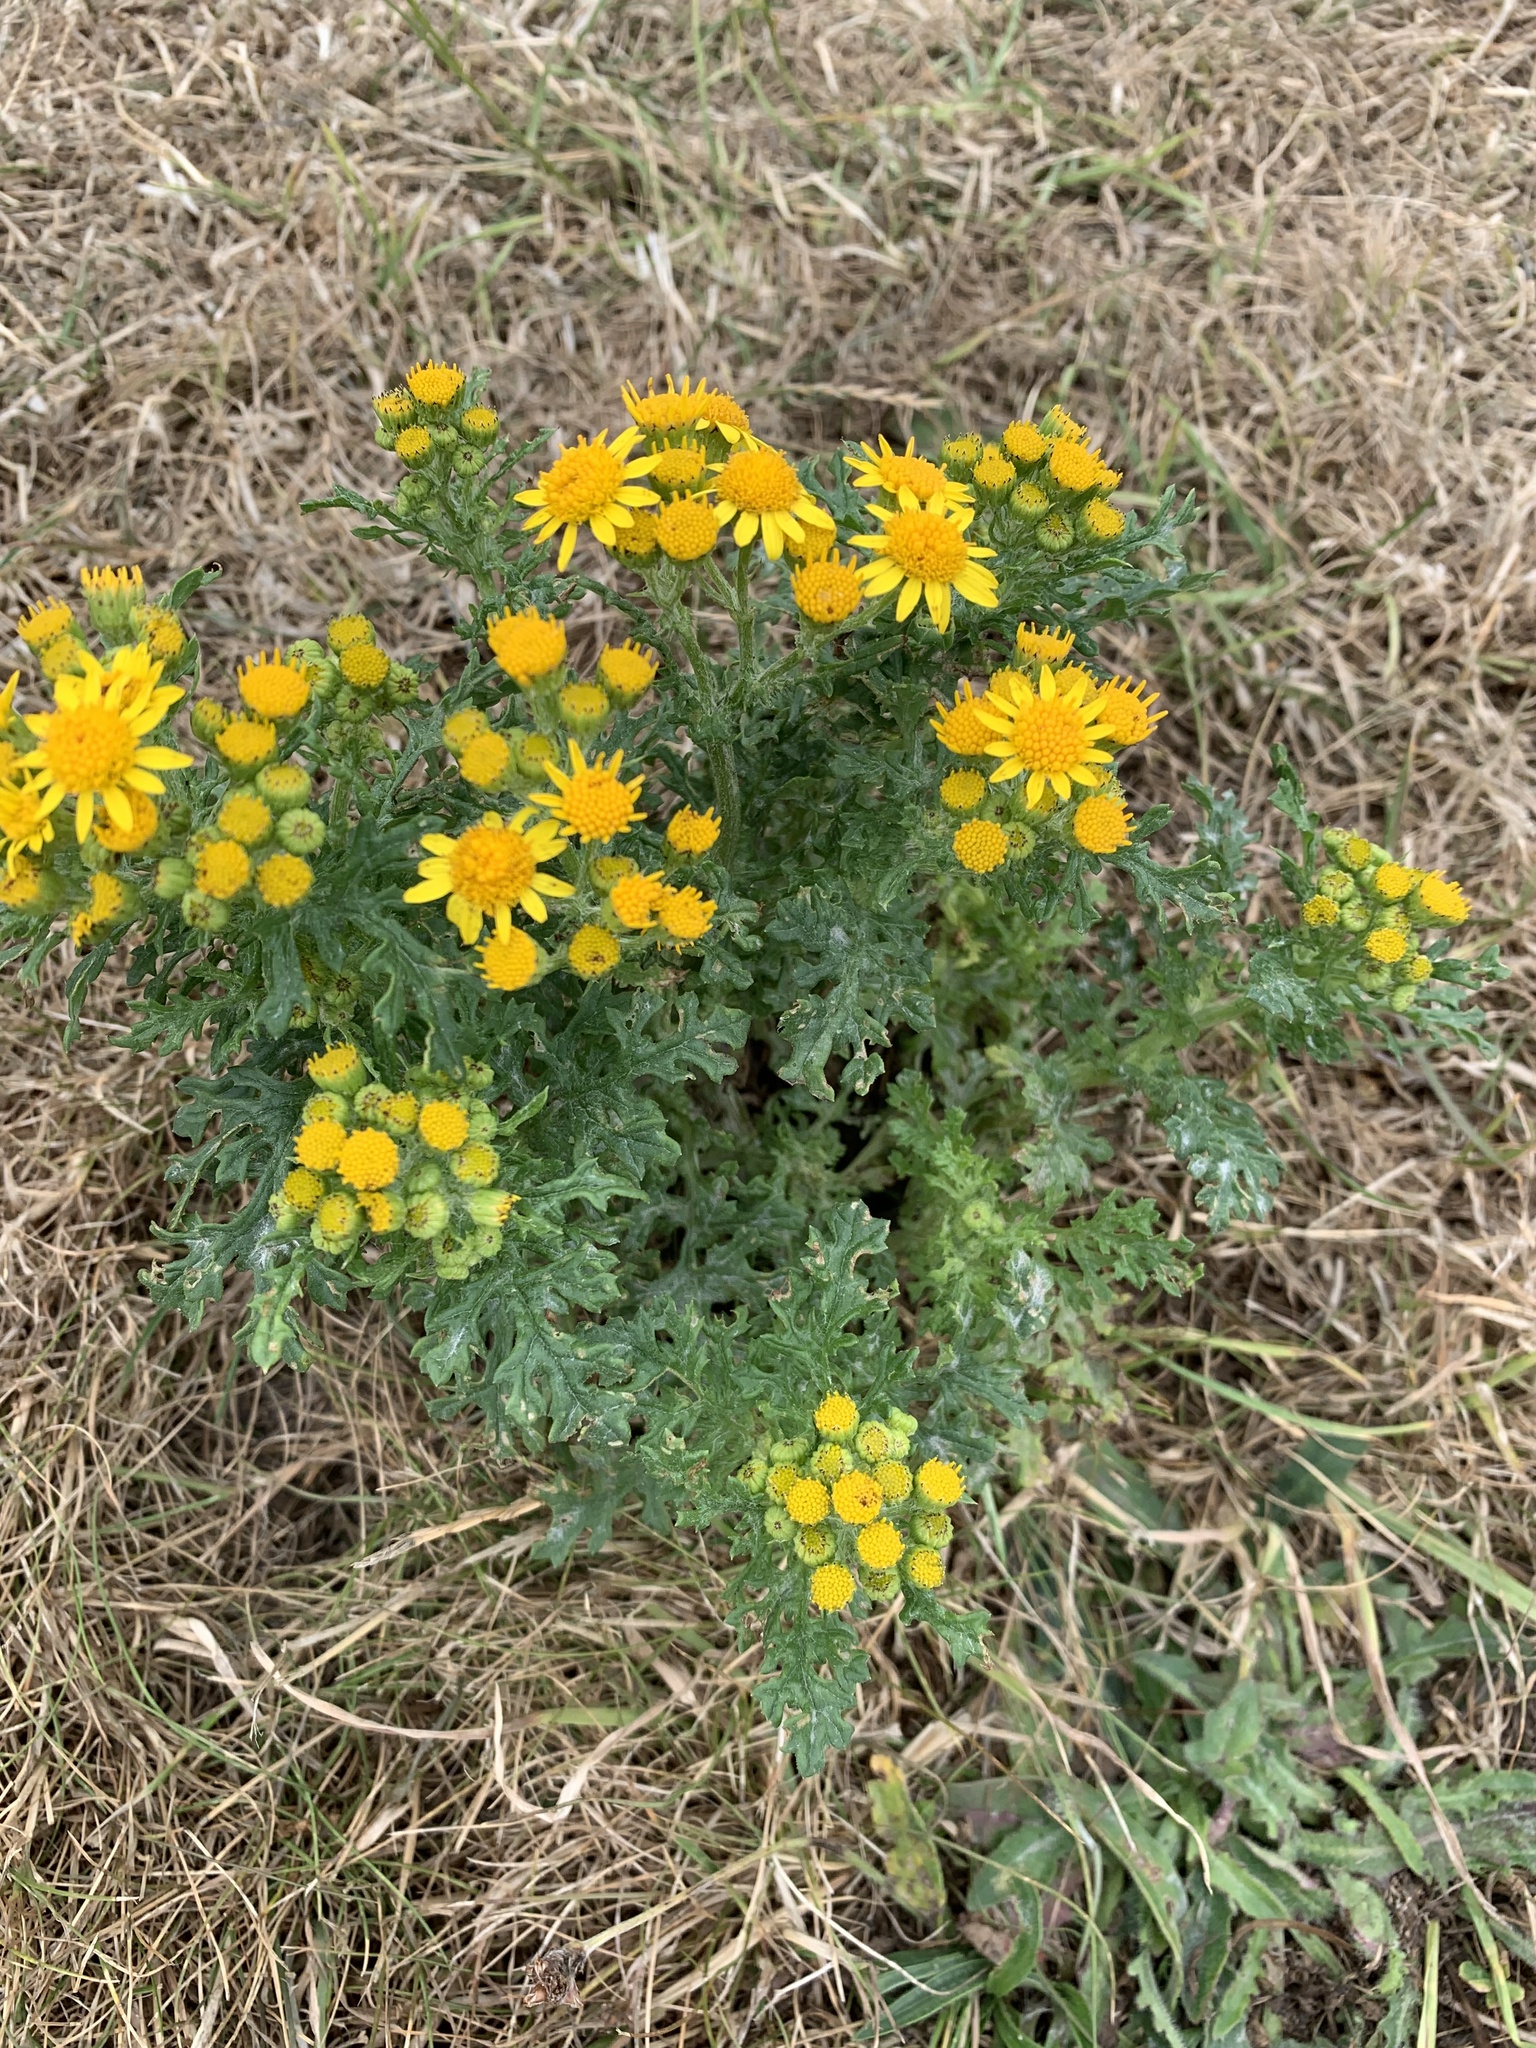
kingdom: Plantae
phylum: Tracheophyta
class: Magnoliopsida
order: Asterales
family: Asteraceae
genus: Jacobaea
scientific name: Jacobaea vulgaris
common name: Stinking willie
